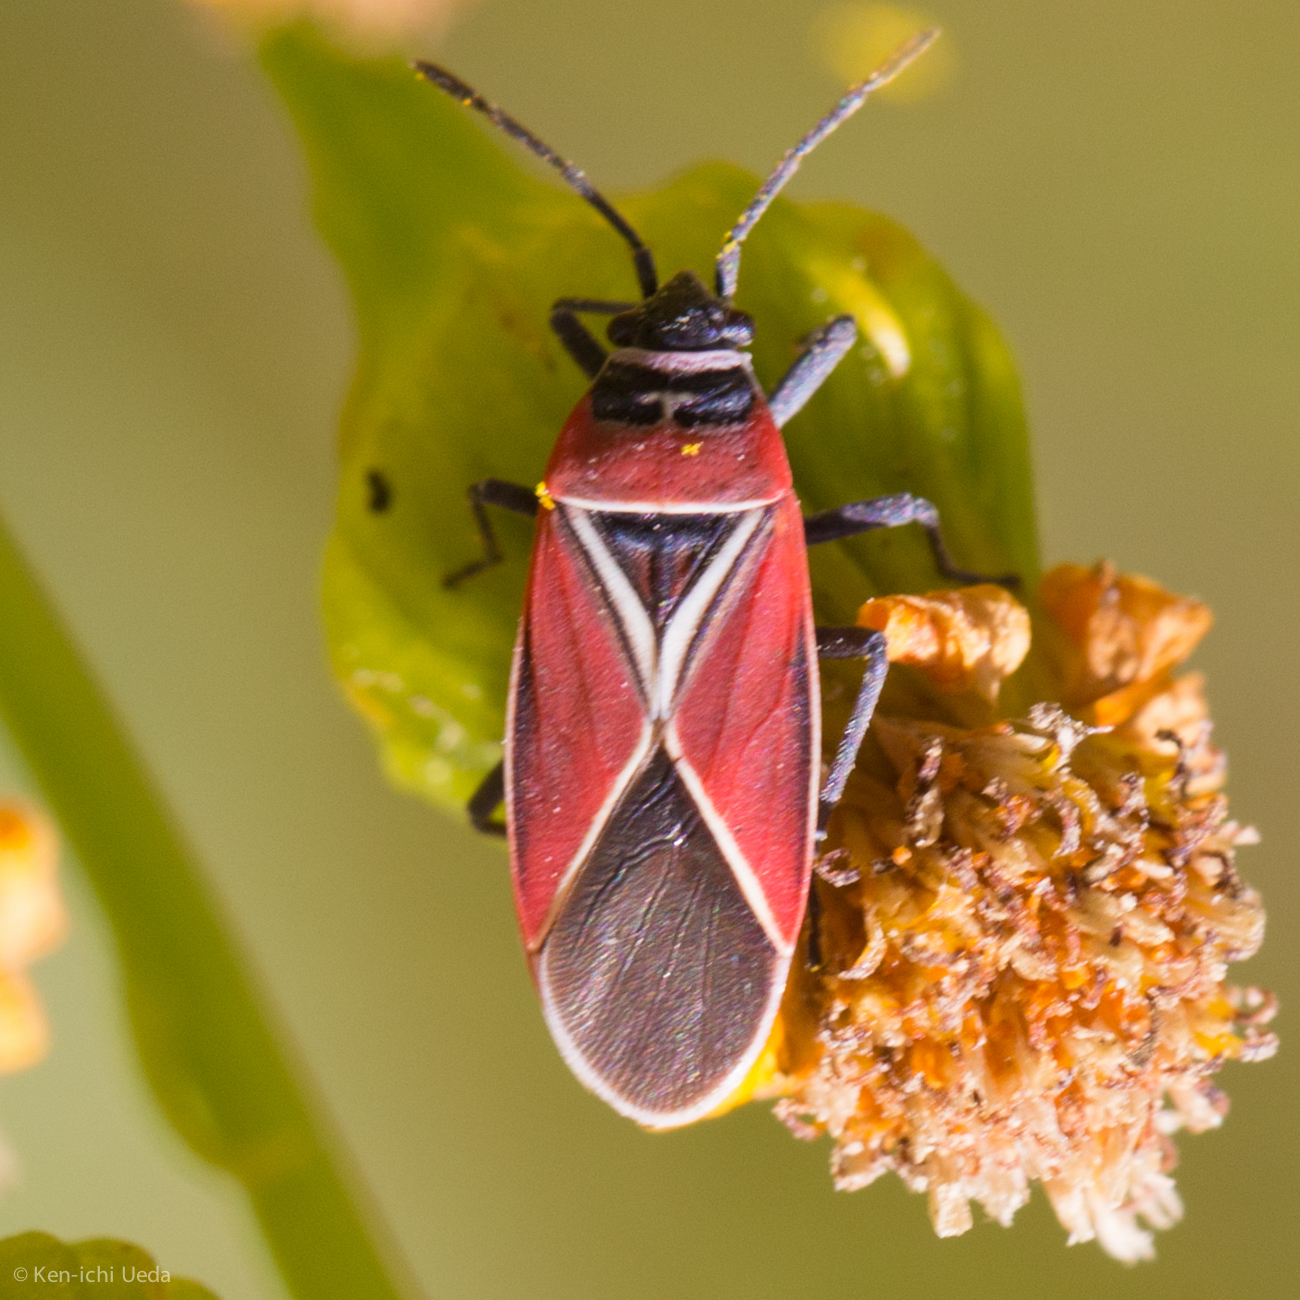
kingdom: Animalia
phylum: Arthropoda
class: Insecta
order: Hemiptera
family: Lygaeidae
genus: Neacoryphus
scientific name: Neacoryphus bicrucis
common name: Lygaeid bug
